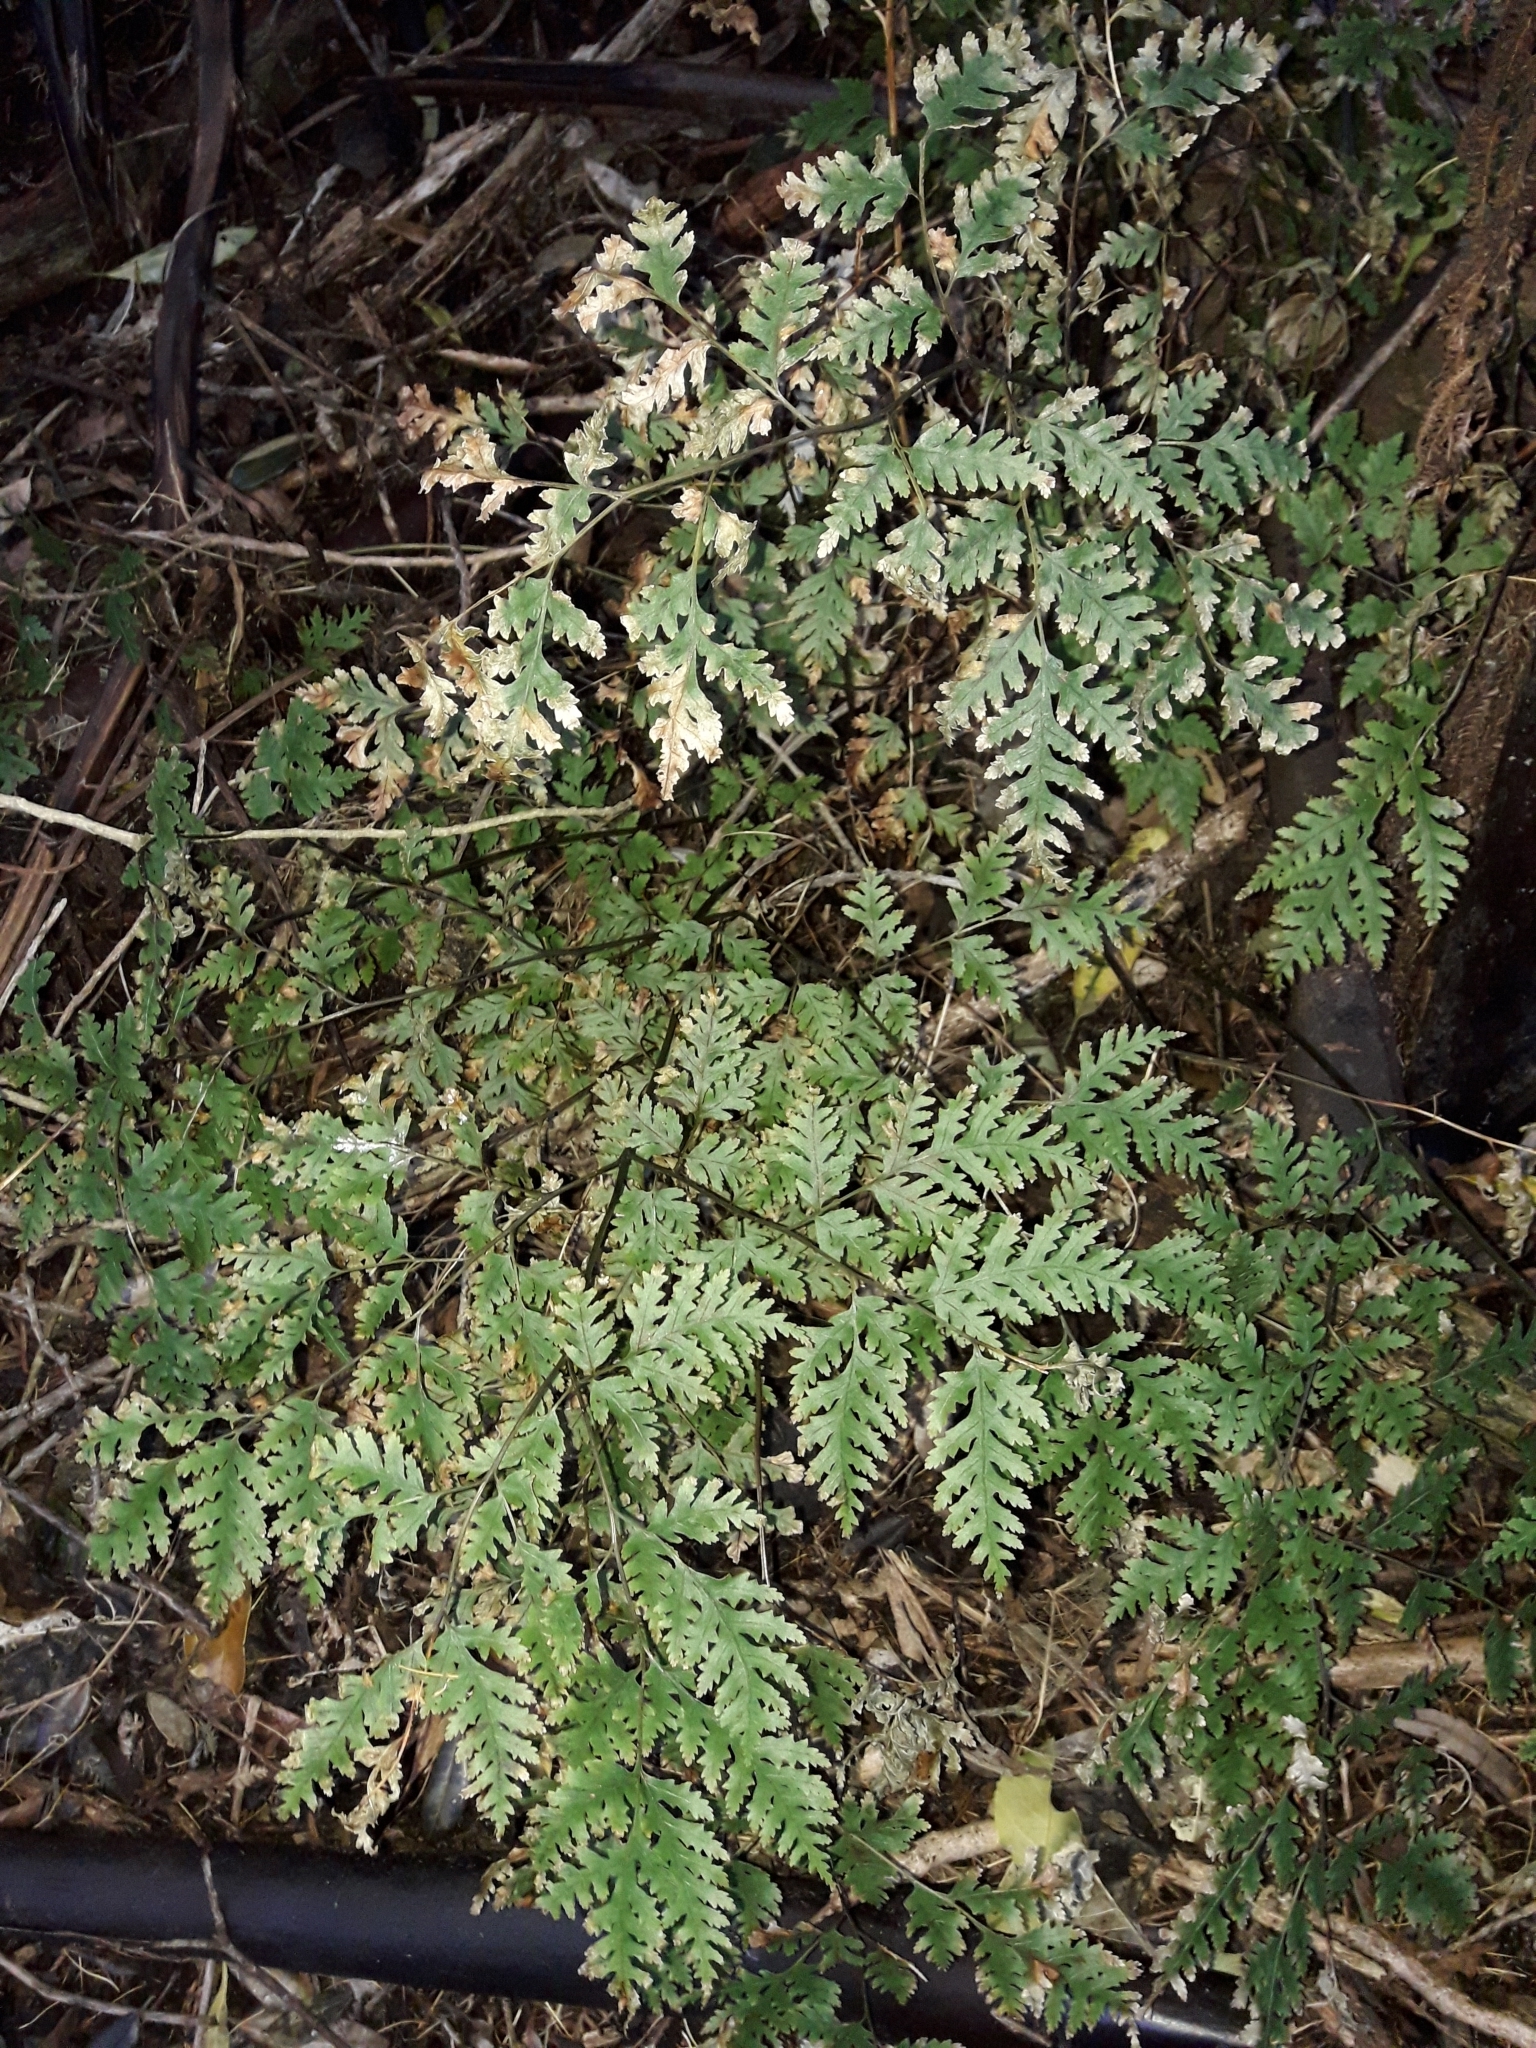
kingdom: Plantae
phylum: Tracheophyta
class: Polypodiopsida
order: Polypodiales
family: Pteridaceae
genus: Pteris
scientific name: Pteris macilenta
